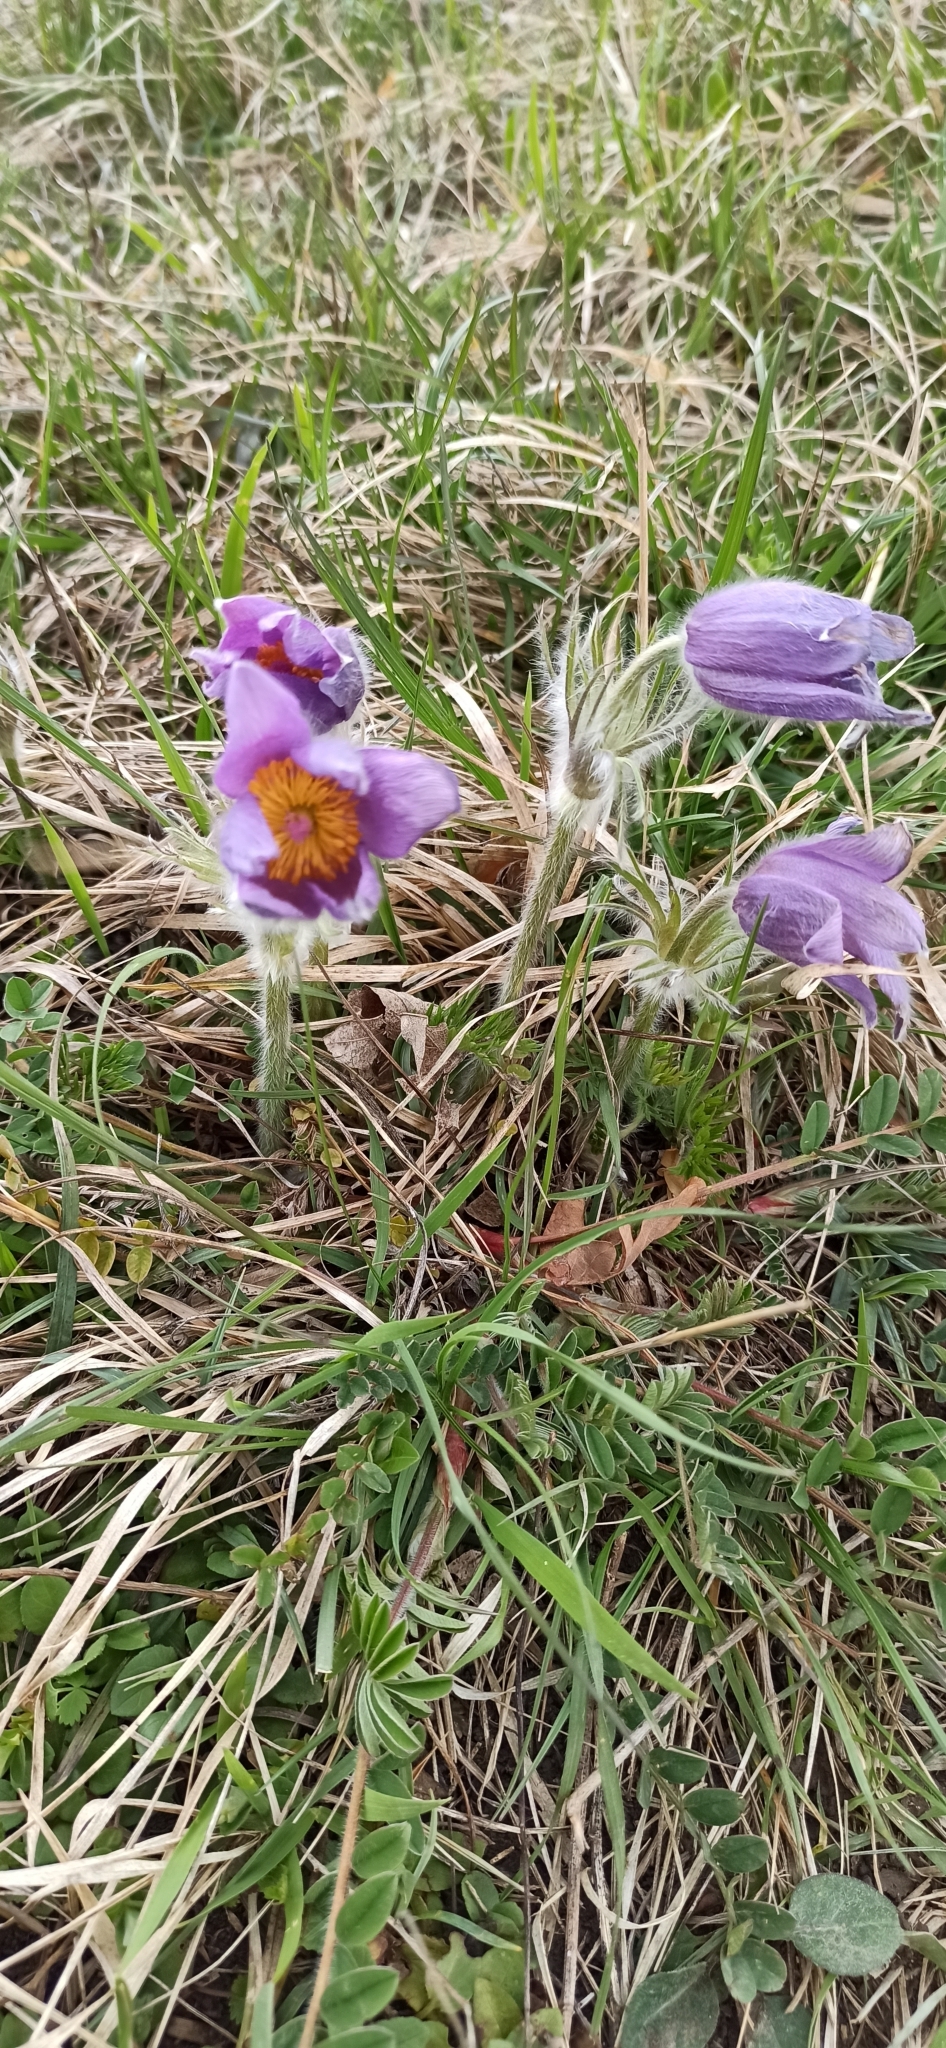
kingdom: Plantae
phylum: Tracheophyta
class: Magnoliopsida
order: Ranunculales
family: Ranunculaceae
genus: Pulsatilla
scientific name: Pulsatilla vulgaris
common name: Pasqueflower
